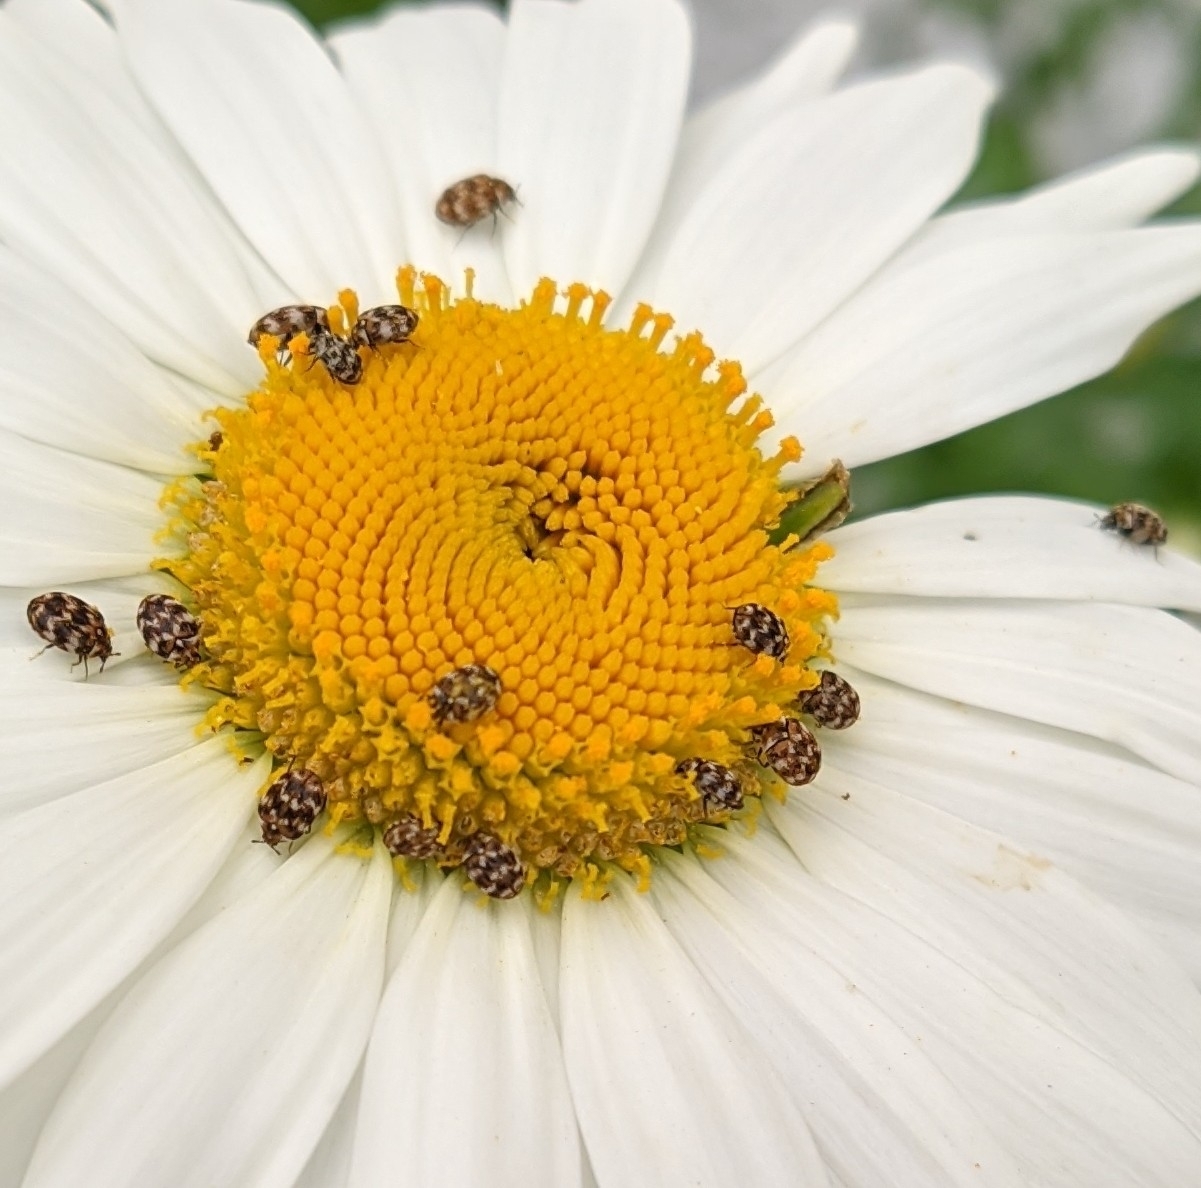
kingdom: Animalia
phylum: Arthropoda
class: Insecta
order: Coleoptera
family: Dermestidae
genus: Anthrenus
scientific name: Anthrenus verbasci
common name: Varied carpet beetle
